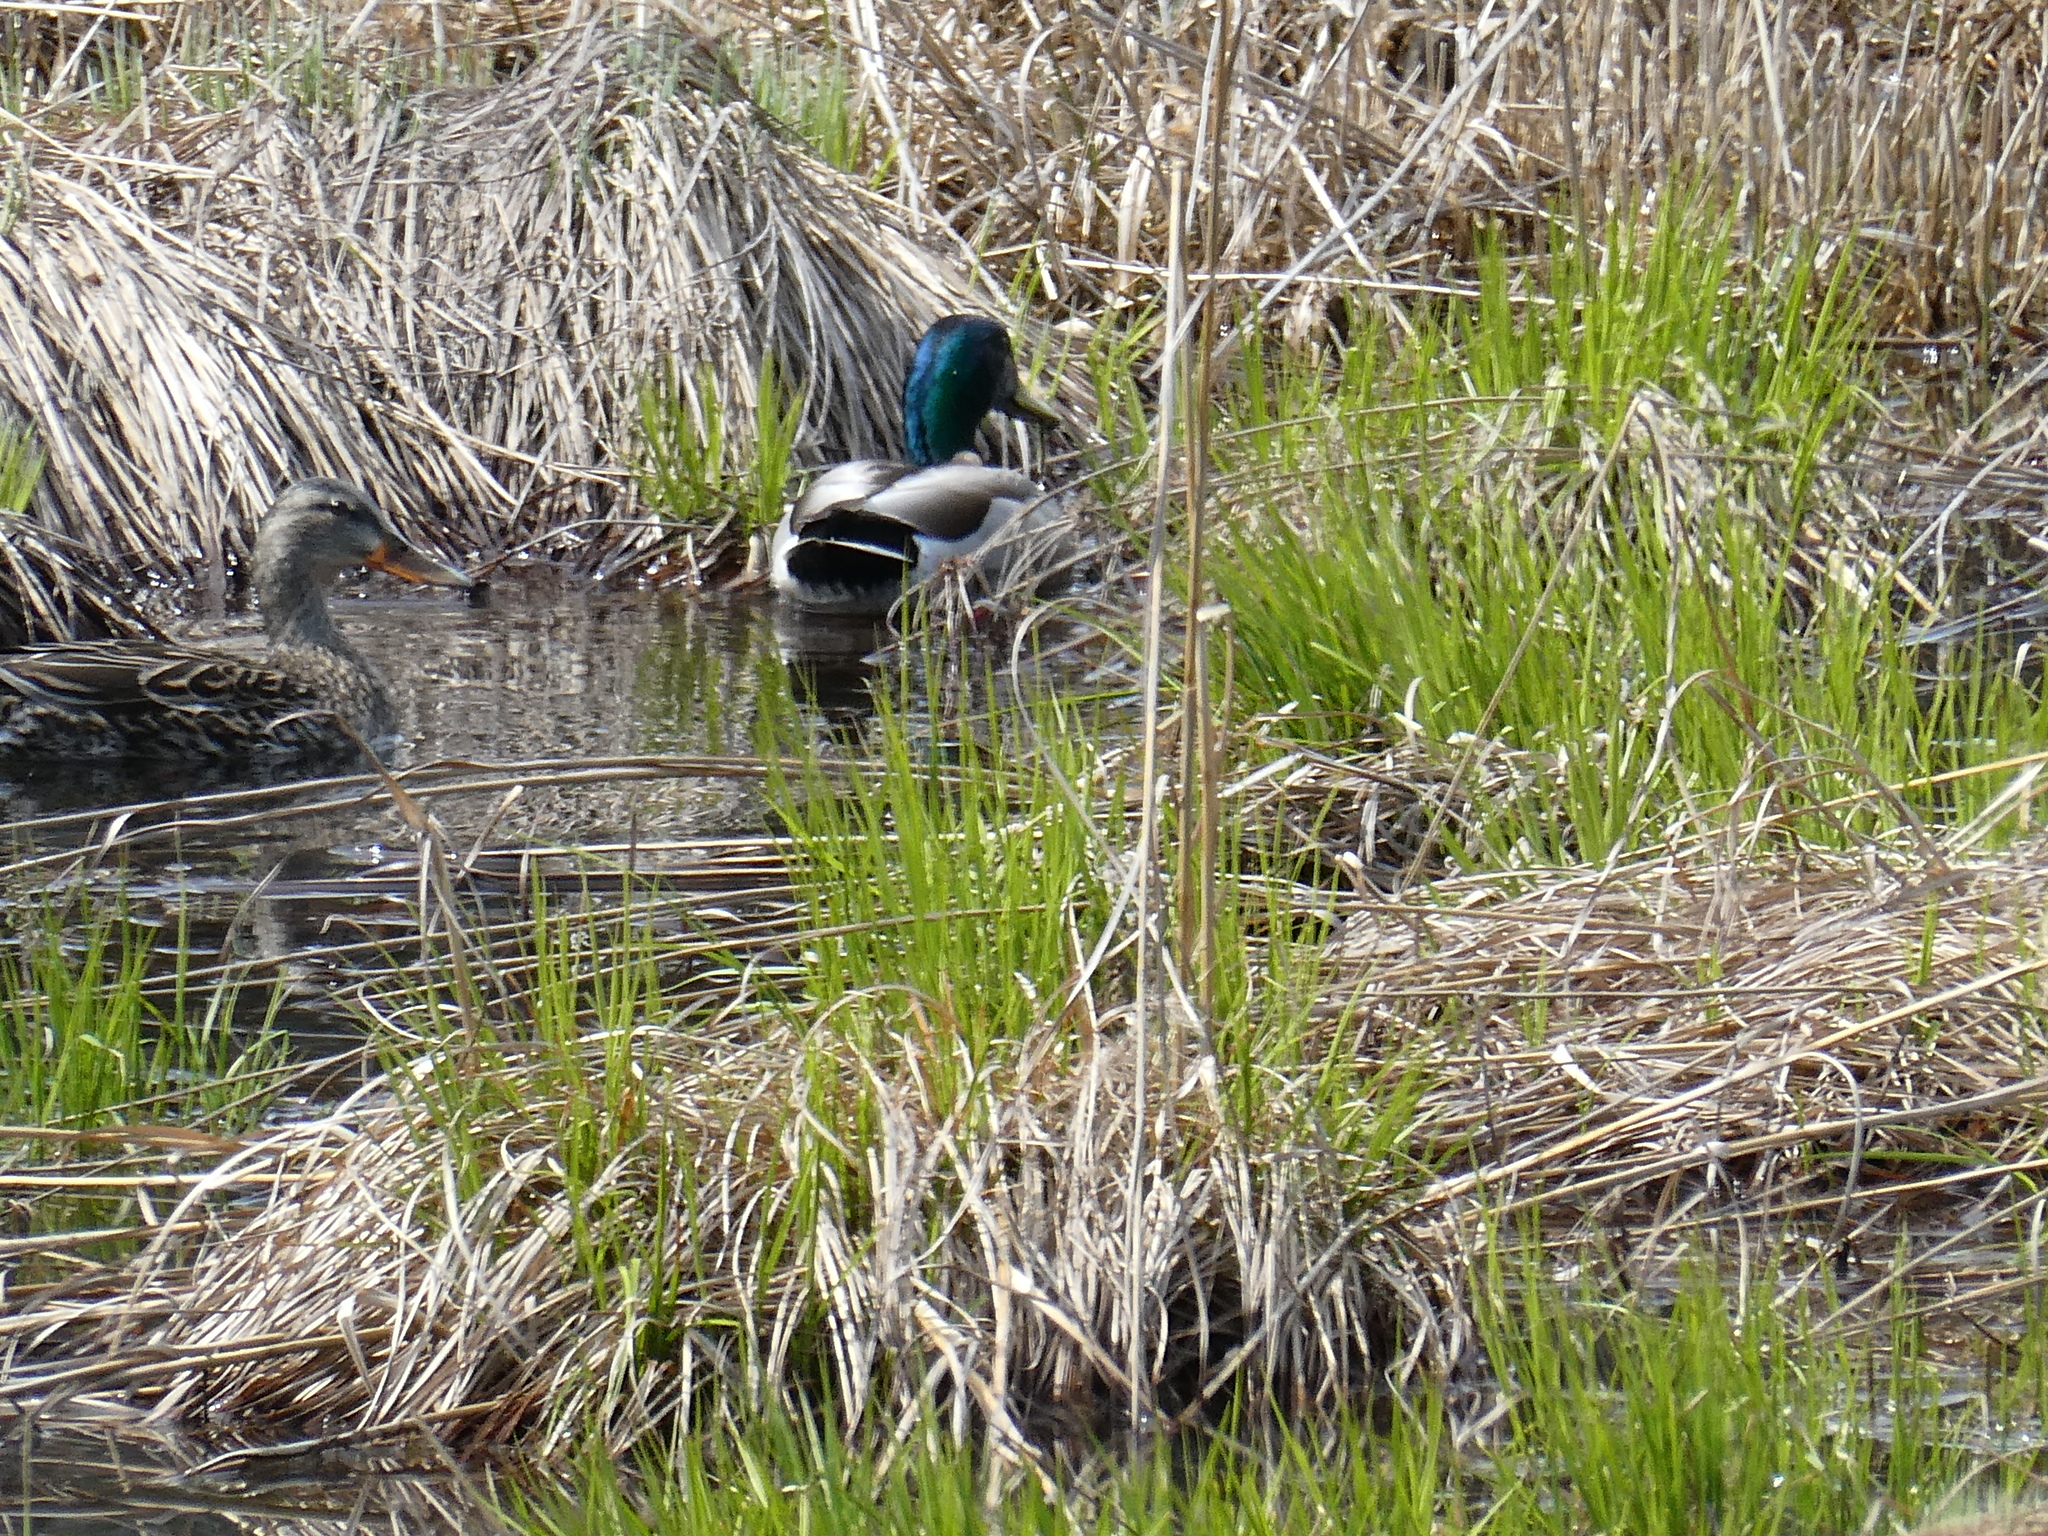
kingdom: Animalia
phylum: Chordata
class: Aves
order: Anseriformes
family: Anatidae
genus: Anas
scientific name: Anas platyrhynchos
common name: Mallard
